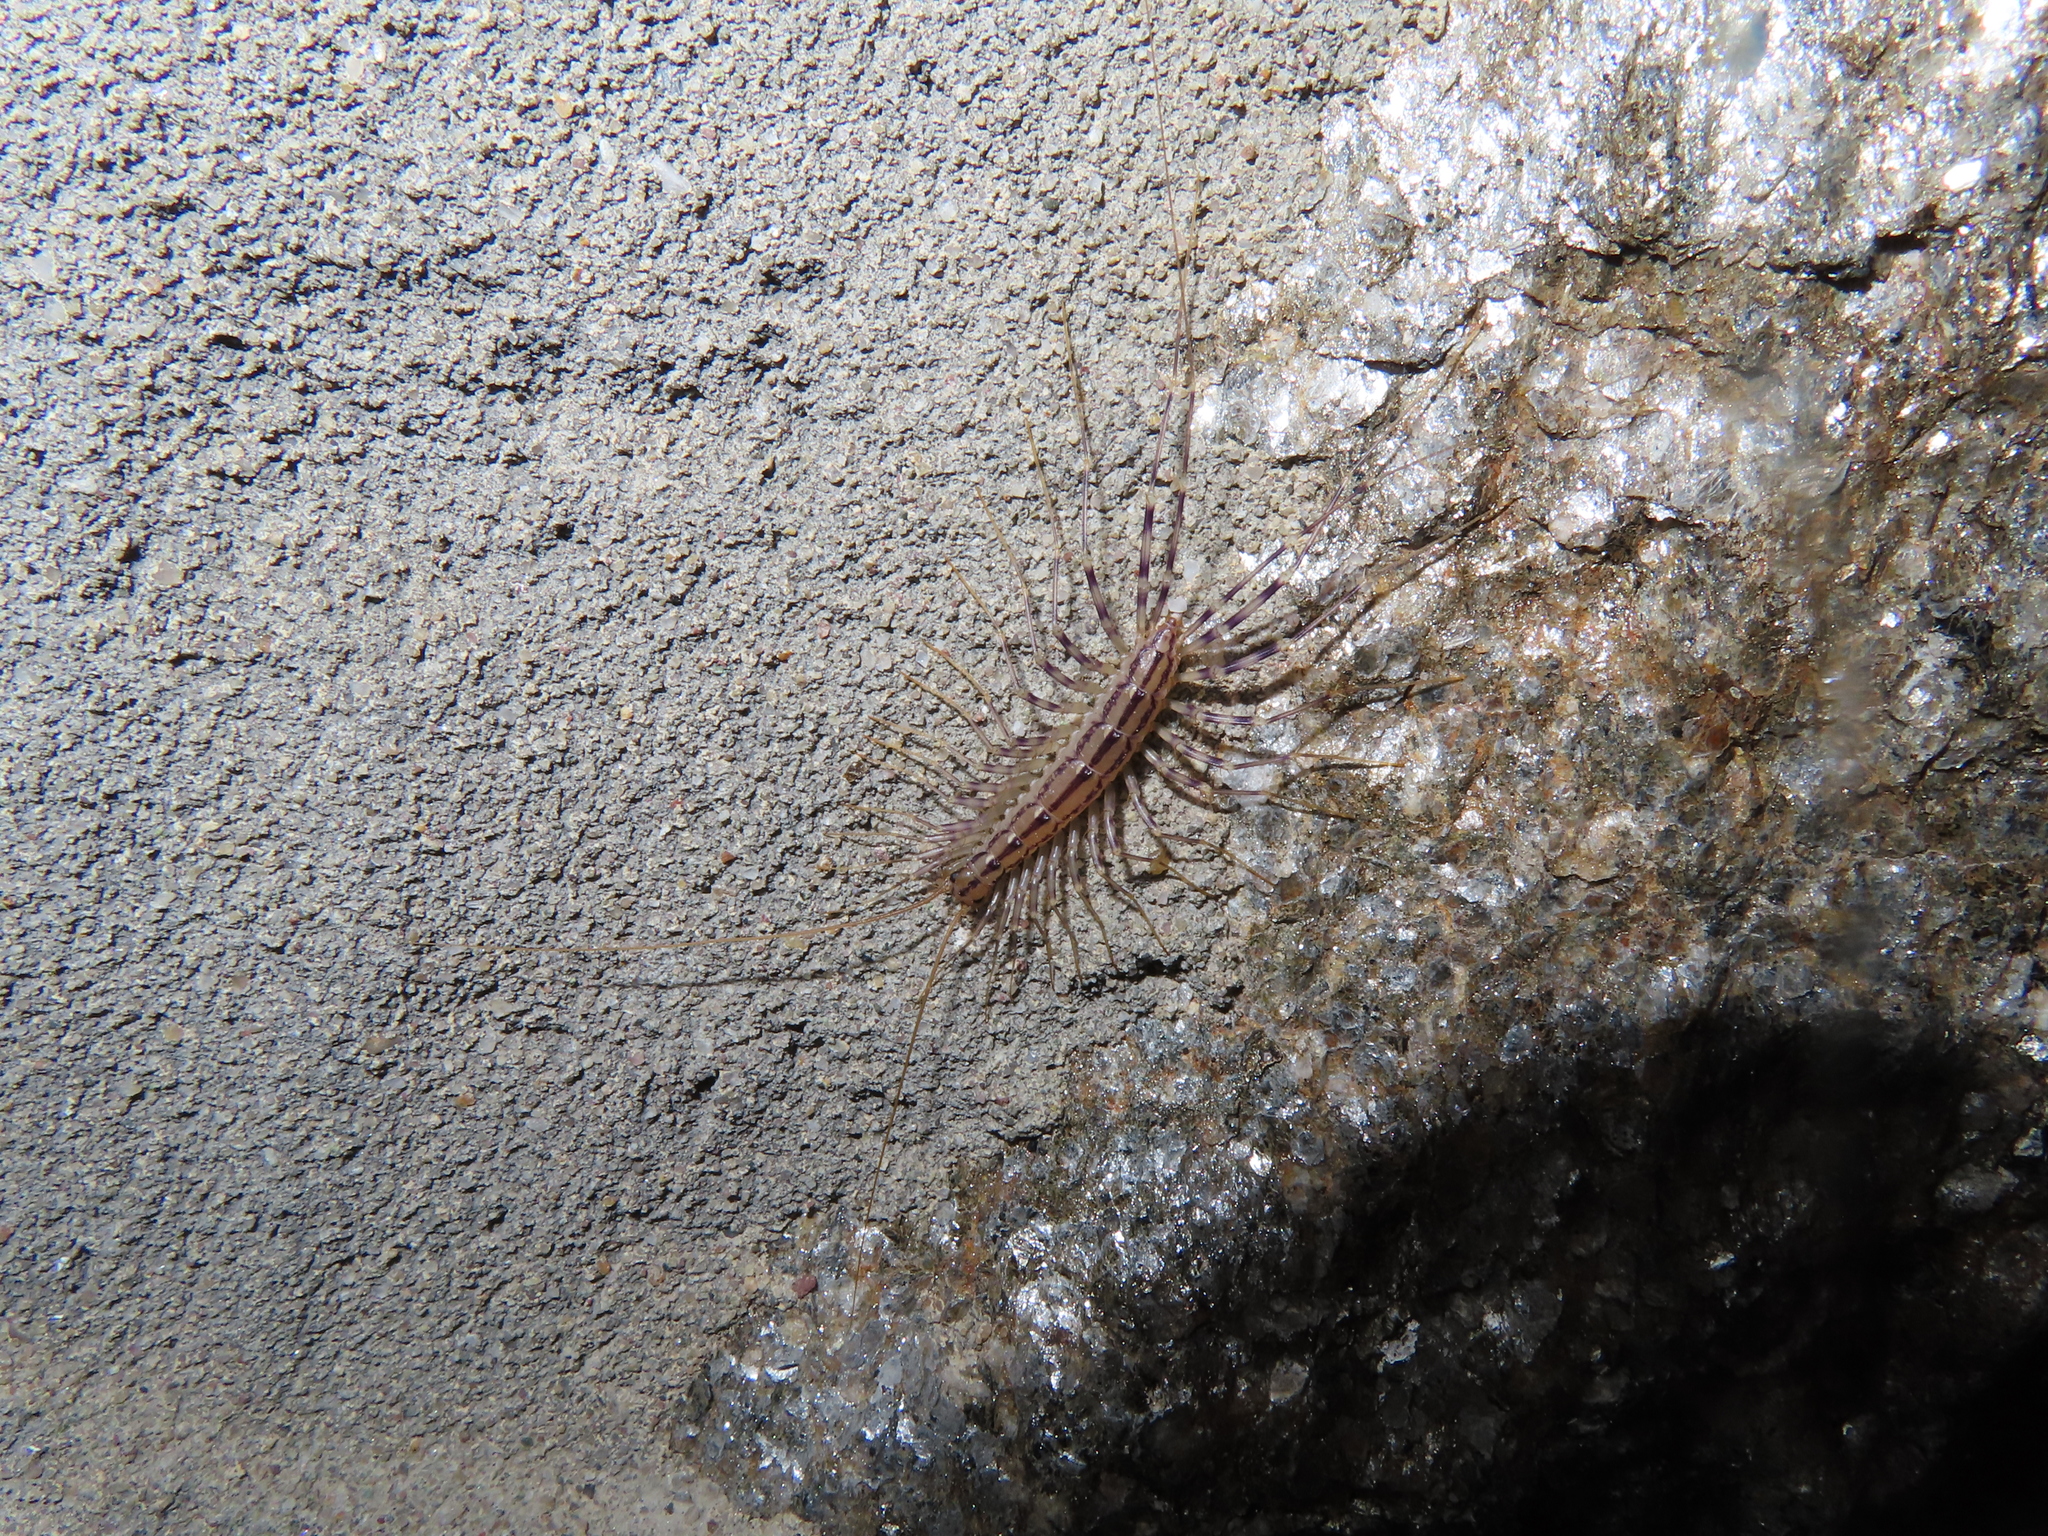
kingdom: Animalia
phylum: Arthropoda
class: Chilopoda
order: Scutigeromorpha
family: Scutigeridae
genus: Scutigera
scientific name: Scutigera coleoptrata
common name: House centipede
